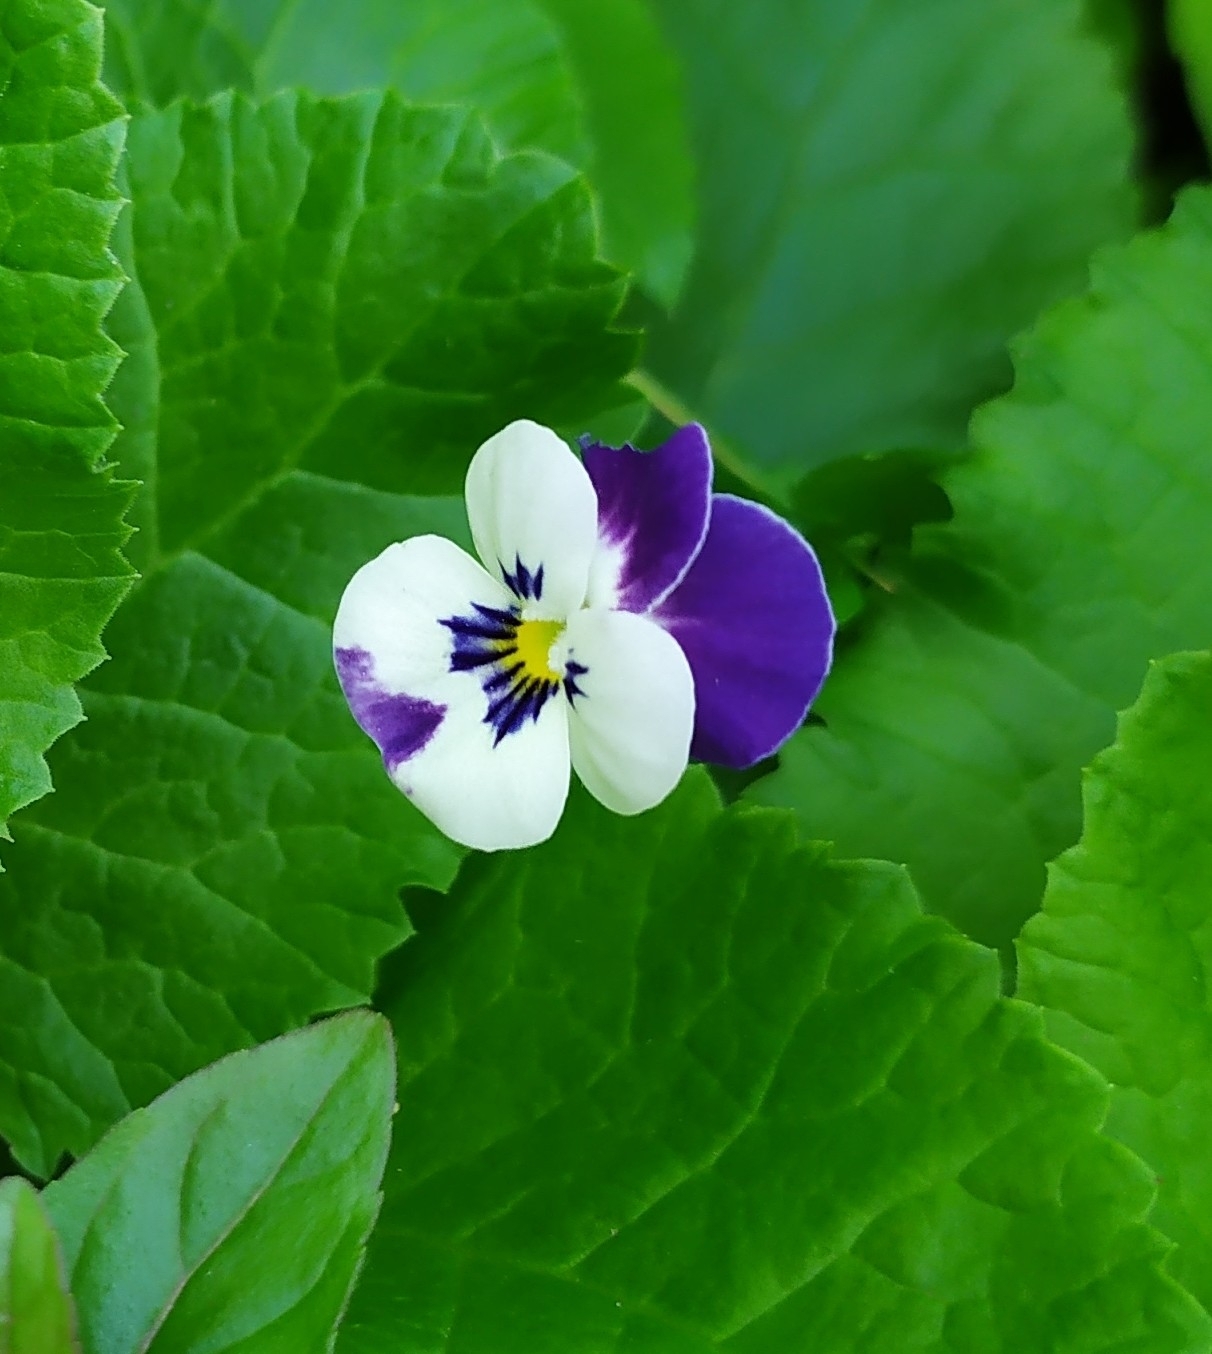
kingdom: Plantae
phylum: Tracheophyta
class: Magnoliopsida
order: Malpighiales
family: Violaceae
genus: Viola
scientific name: Viola wittrockiana
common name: Garden pansy
